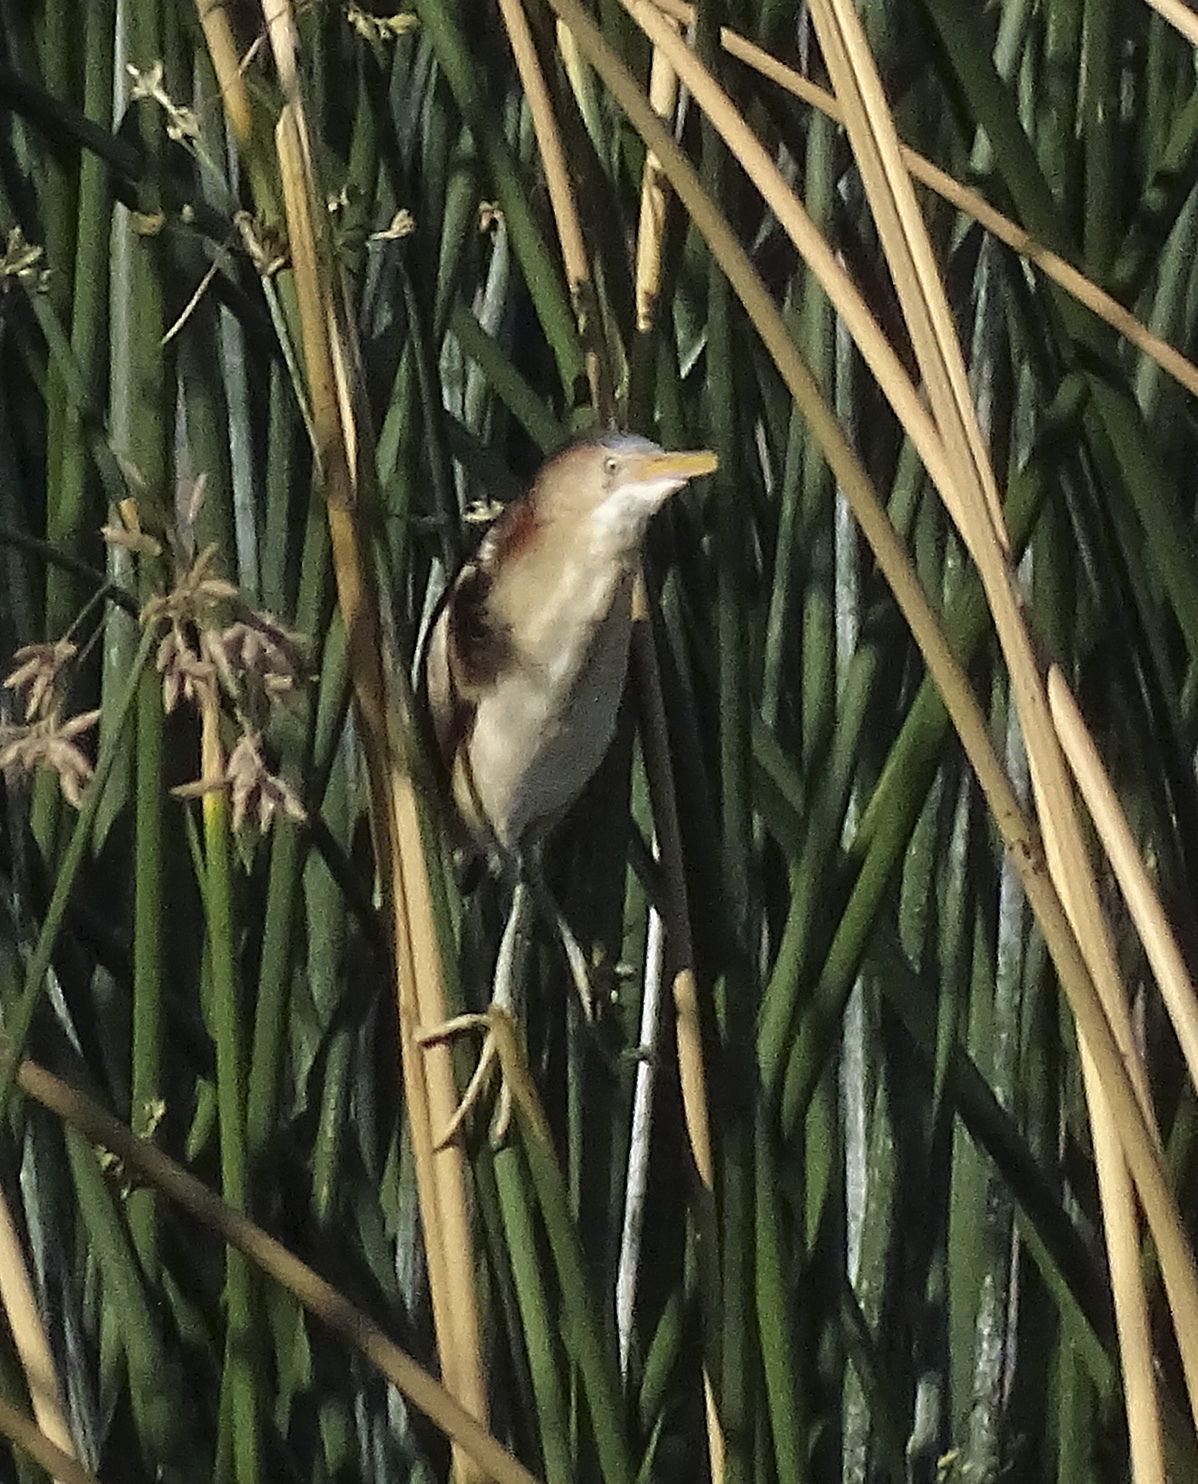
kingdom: Animalia
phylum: Chordata
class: Aves
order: Pelecaniformes
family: Ardeidae
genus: Ixobrychus
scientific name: Ixobrychus exilis
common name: Least bittern
